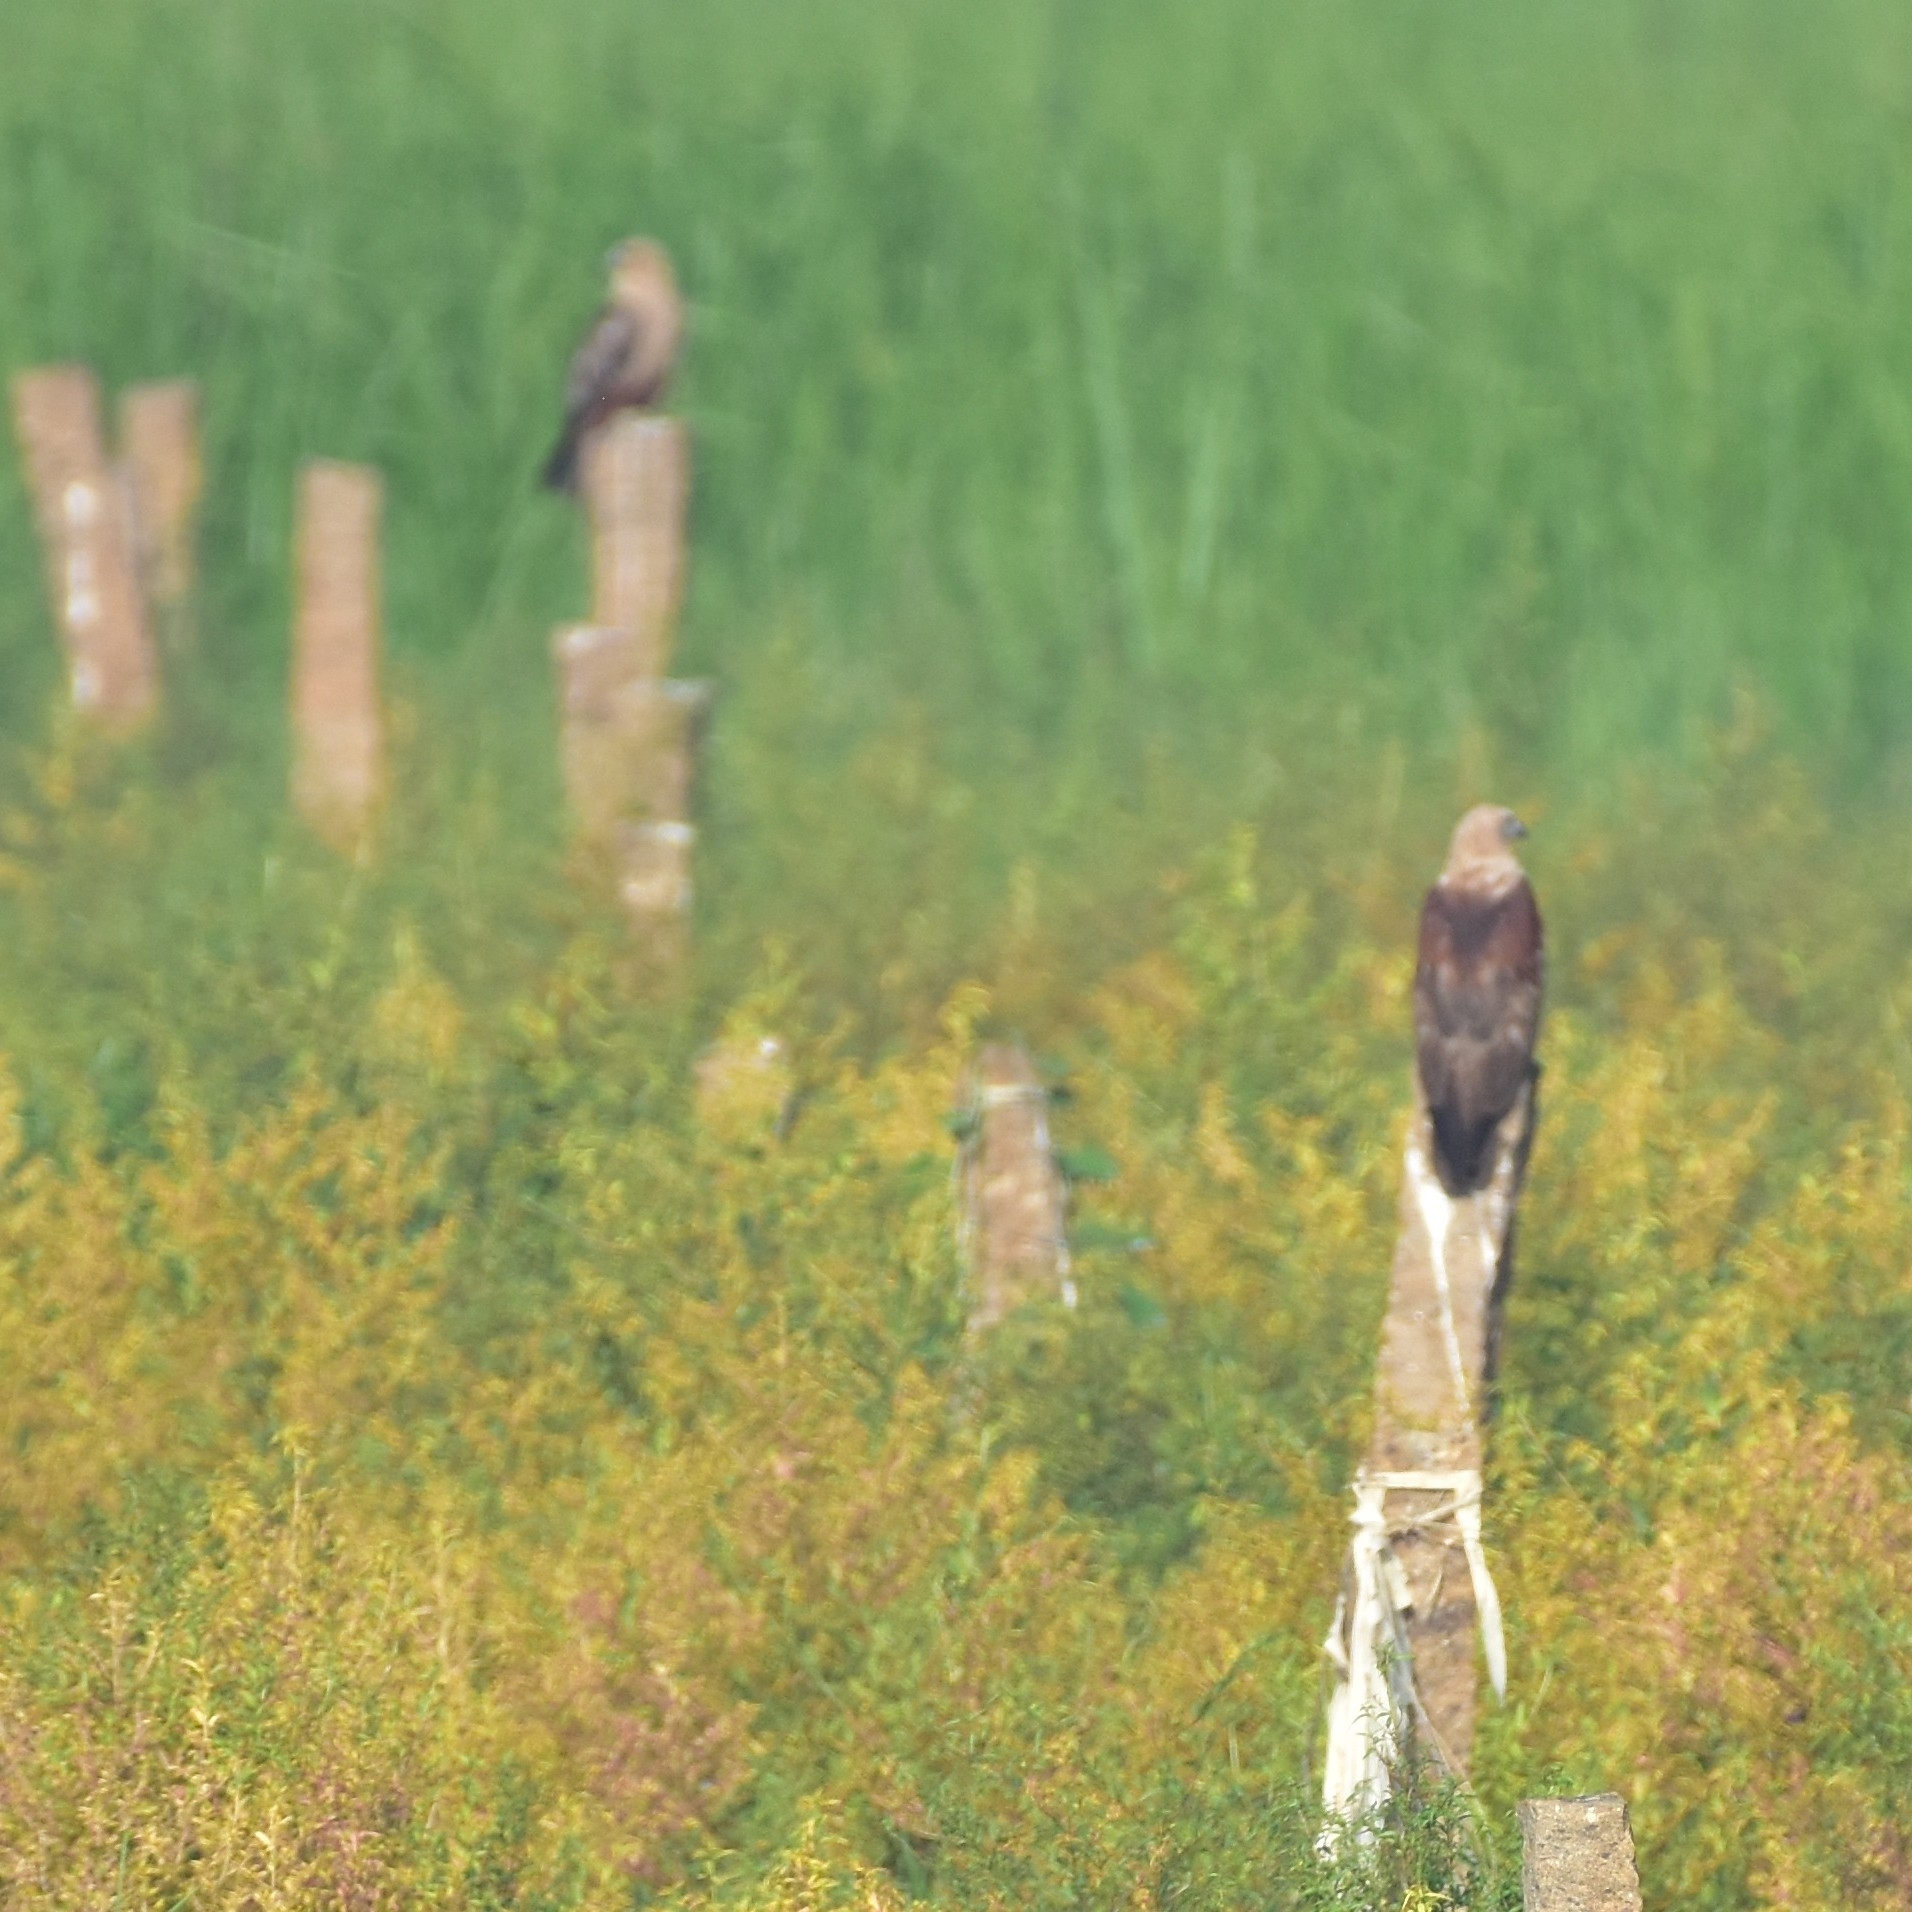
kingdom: Animalia
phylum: Chordata
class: Aves
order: Accipitriformes
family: Accipitridae
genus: Haliastur
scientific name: Haliastur indus
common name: Brahminy kite
